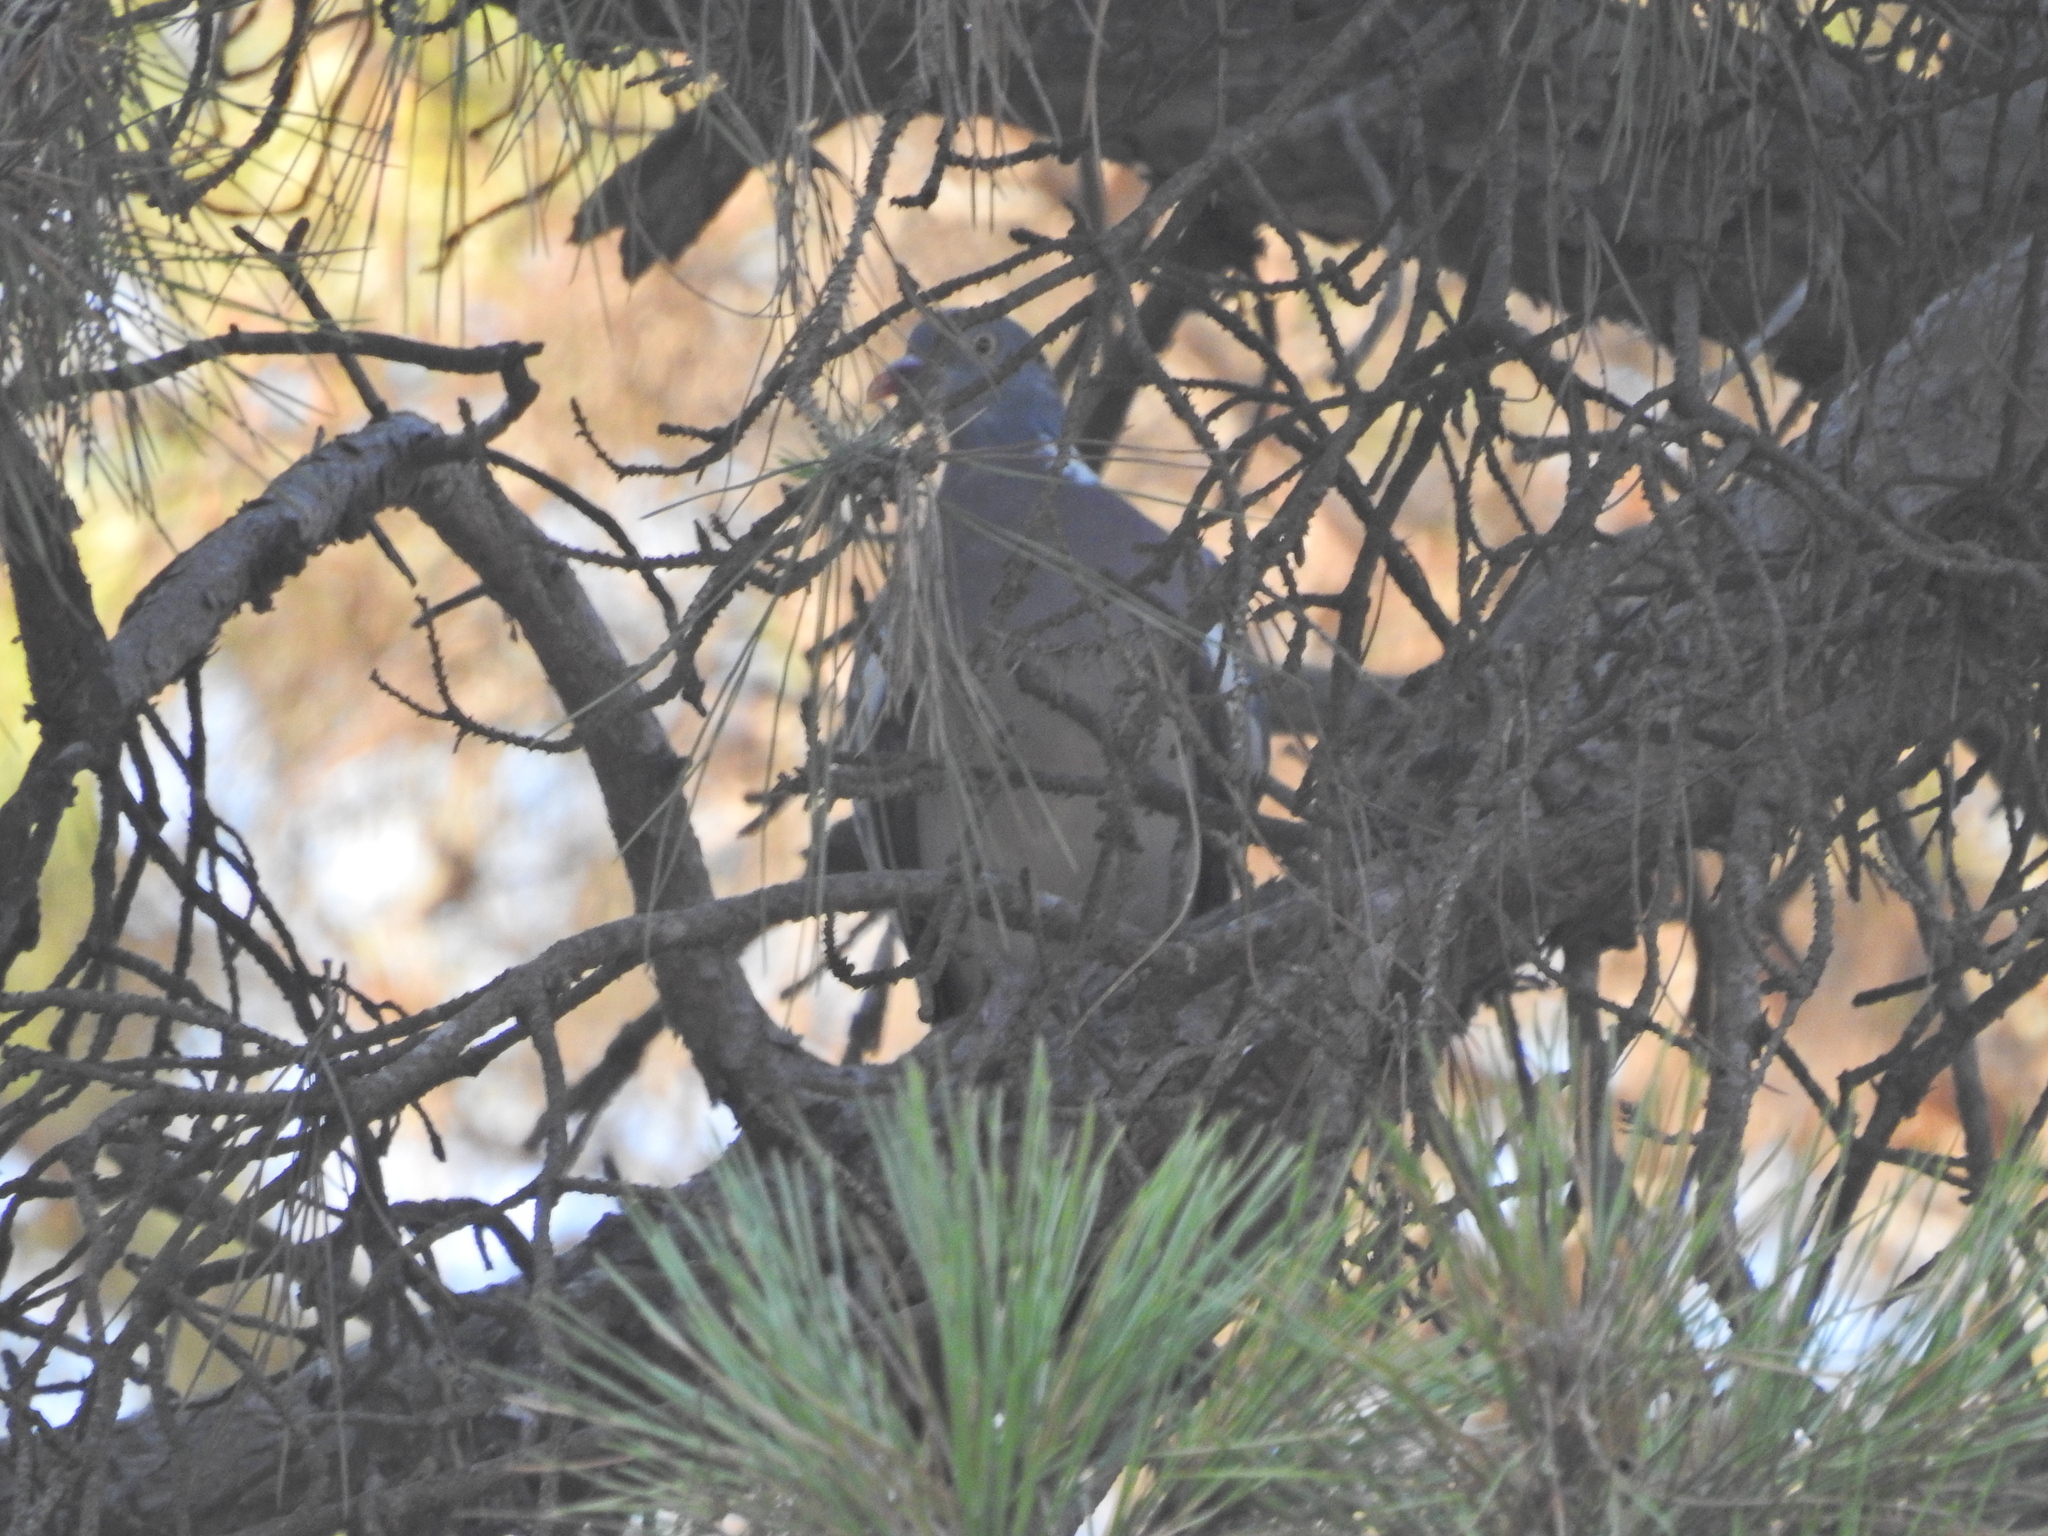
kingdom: Animalia
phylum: Chordata
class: Aves
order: Columbiformes
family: Columbidae
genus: Columba
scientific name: Columba palumbus
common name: Common wood pigeon
